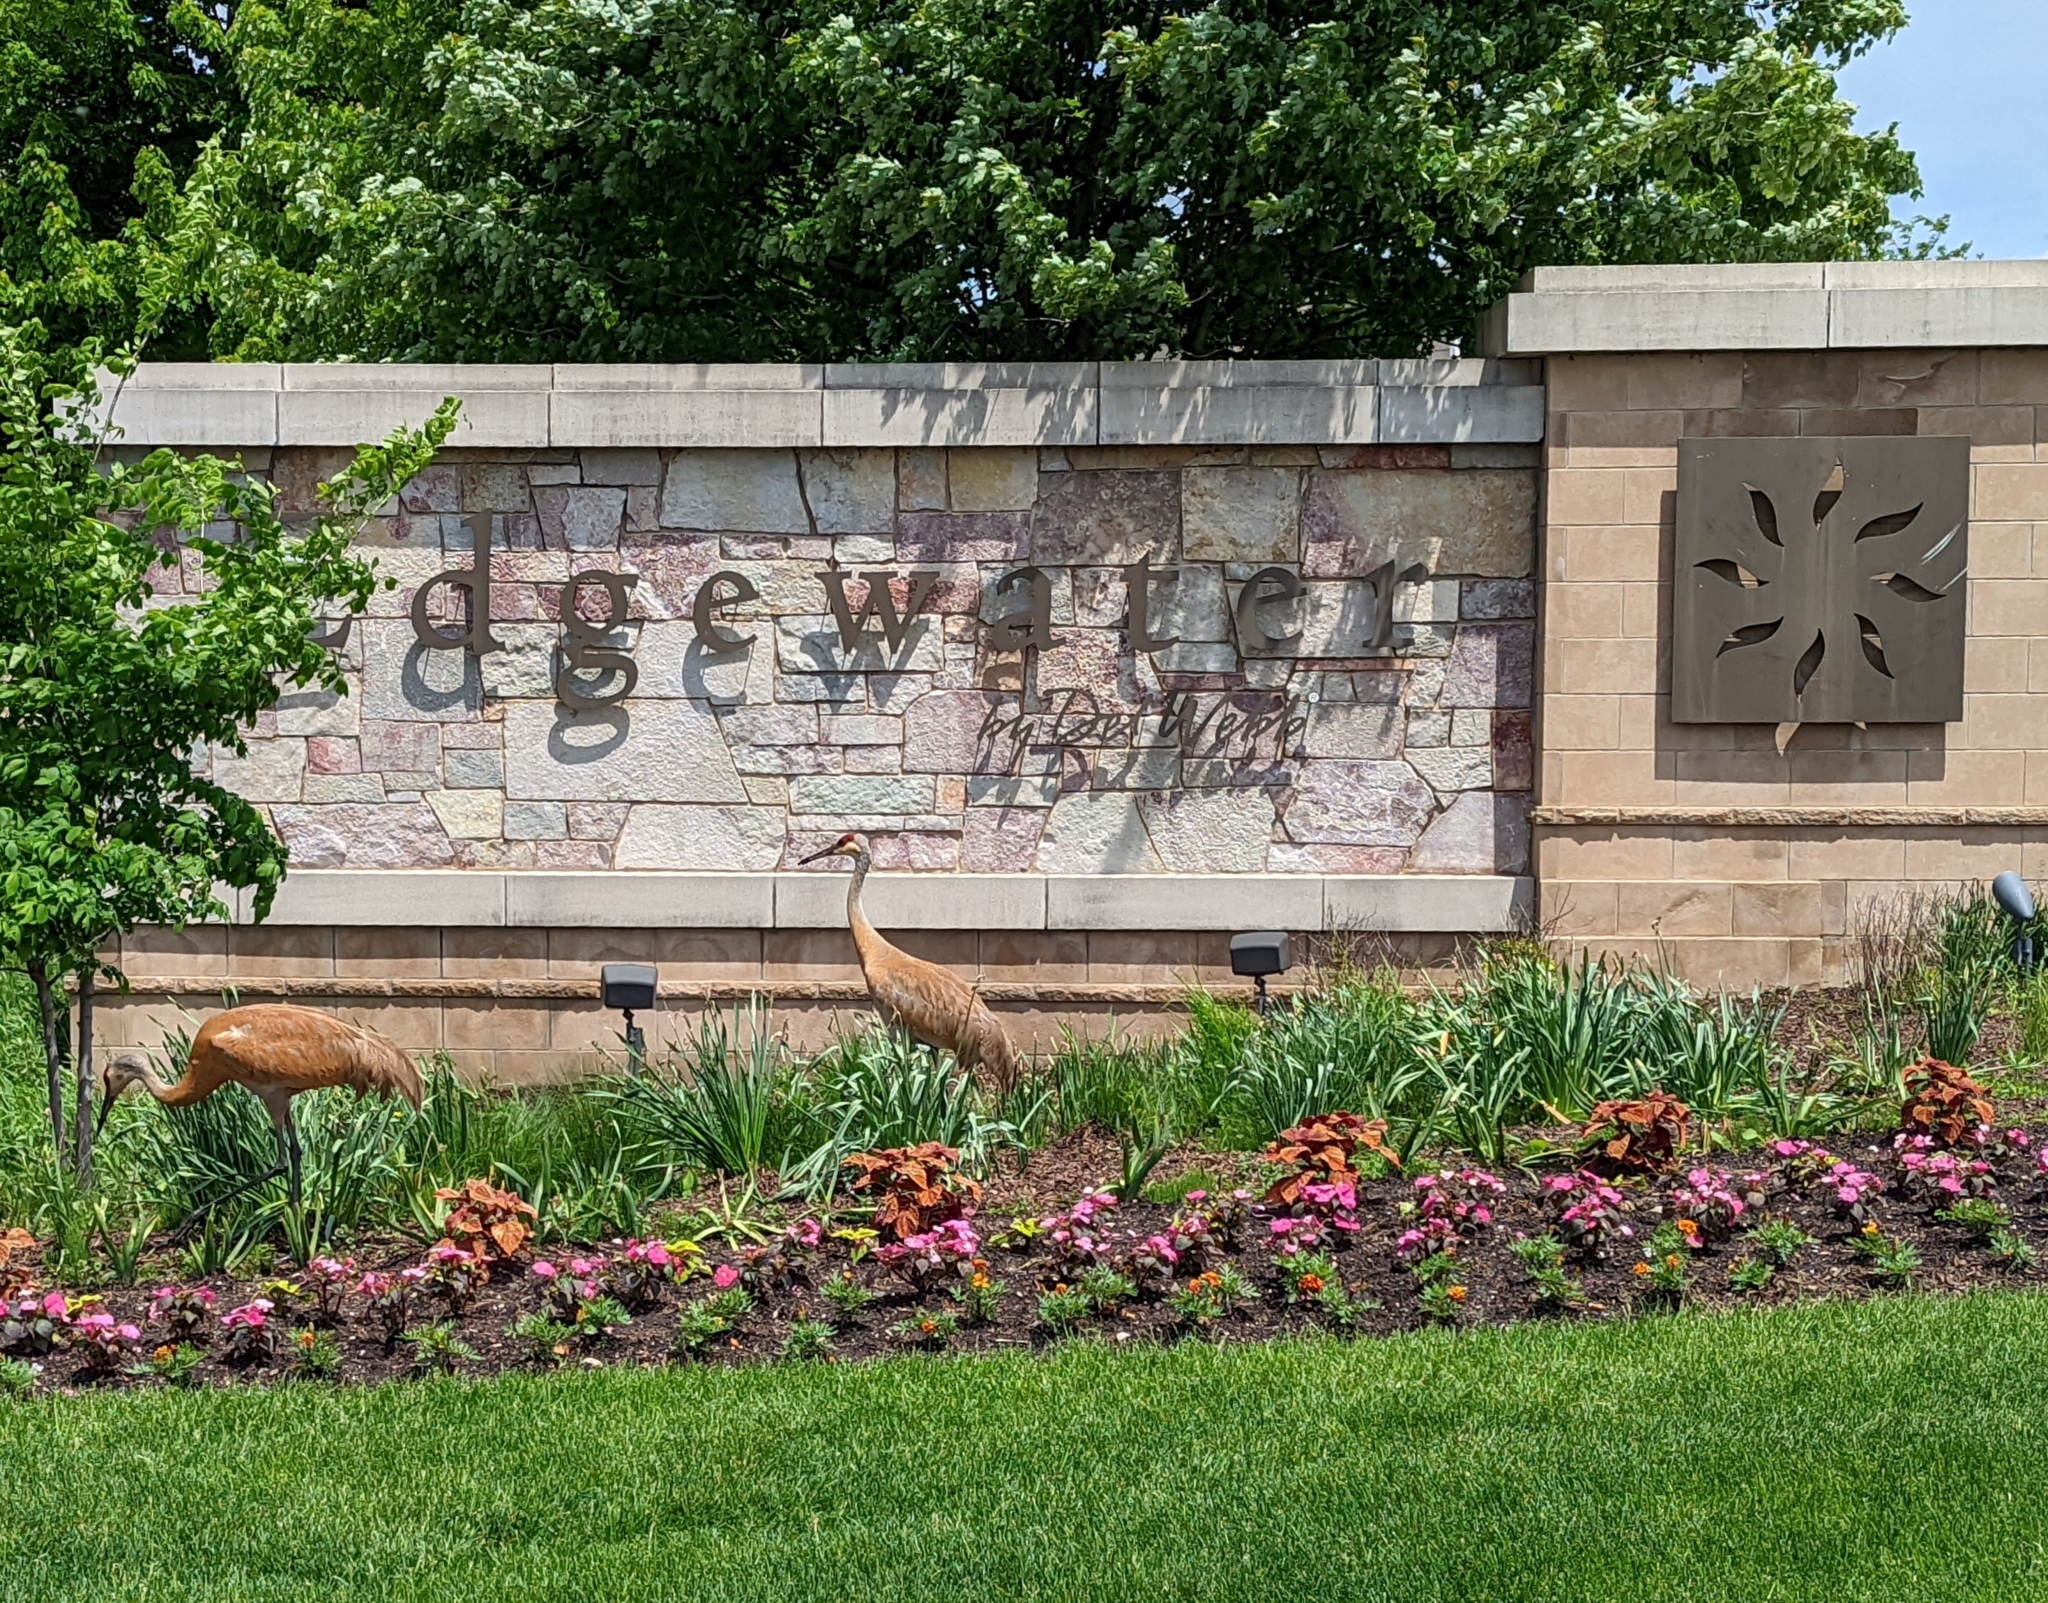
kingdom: Animalia
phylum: Chordata
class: Aves
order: Gruiformes
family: Gruidae
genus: Grus
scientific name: Grus canadensis
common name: Sandhill crane
